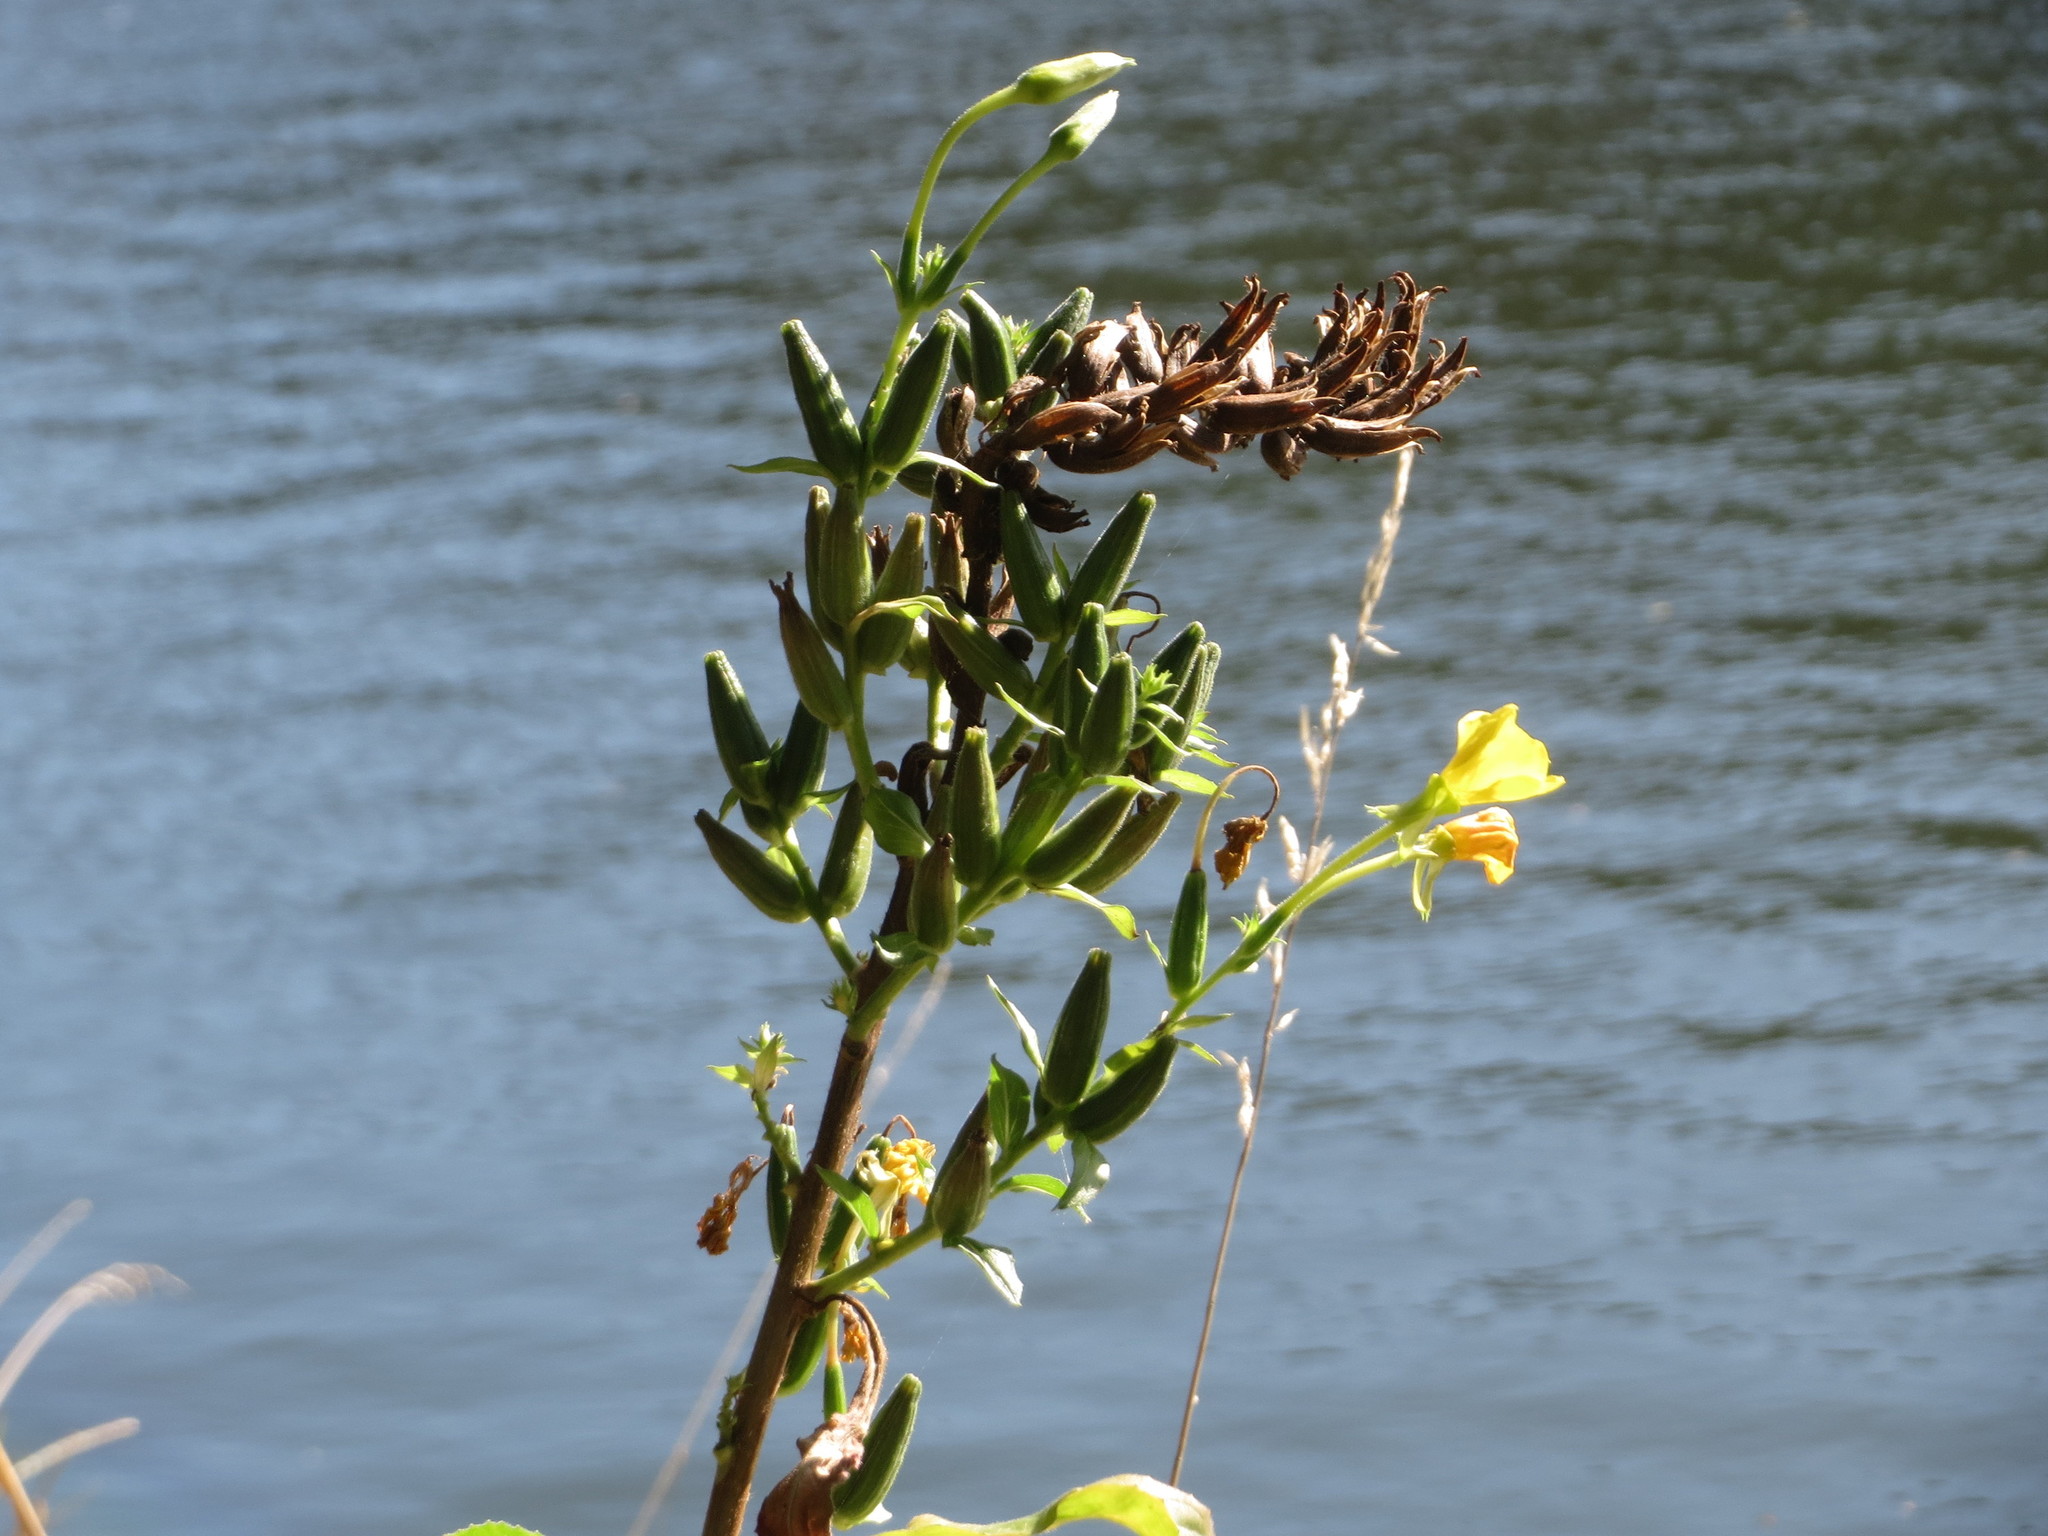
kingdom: Plantae
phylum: Tracheophyta
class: Magnoliopsida
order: Myrtales
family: Onagraceae
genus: Oenothera
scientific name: Oenothera biennis
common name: Common evening-primrose
